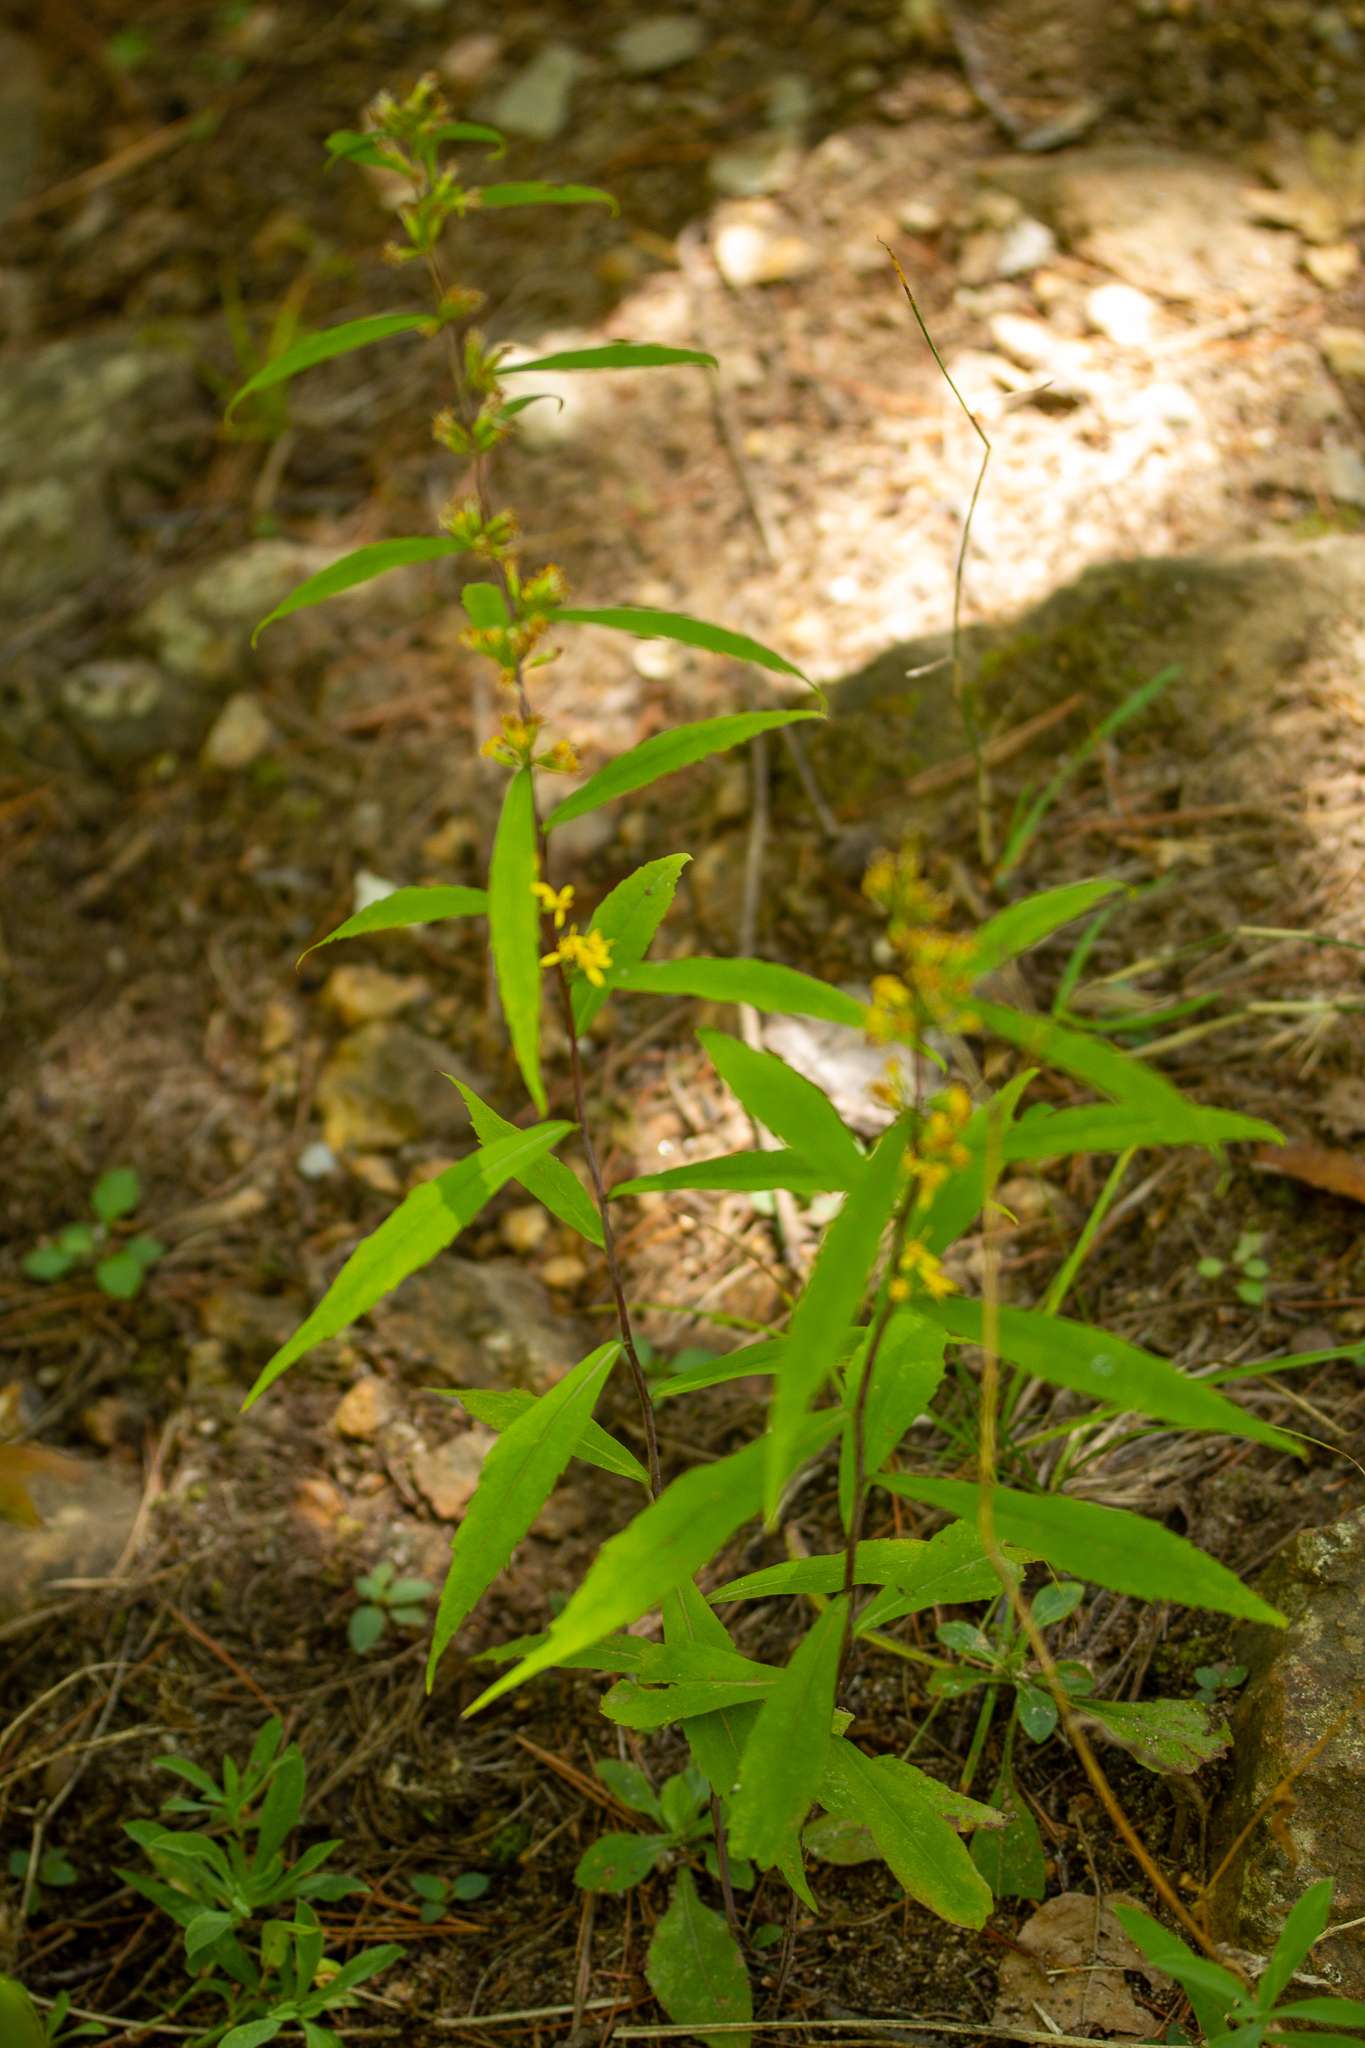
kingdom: Plantae
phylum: Tracheophyta
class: Magnoliopsida
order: Asterales
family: Asteraceae
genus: Solidago
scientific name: Solidago caesia
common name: Woodland goldenrod
